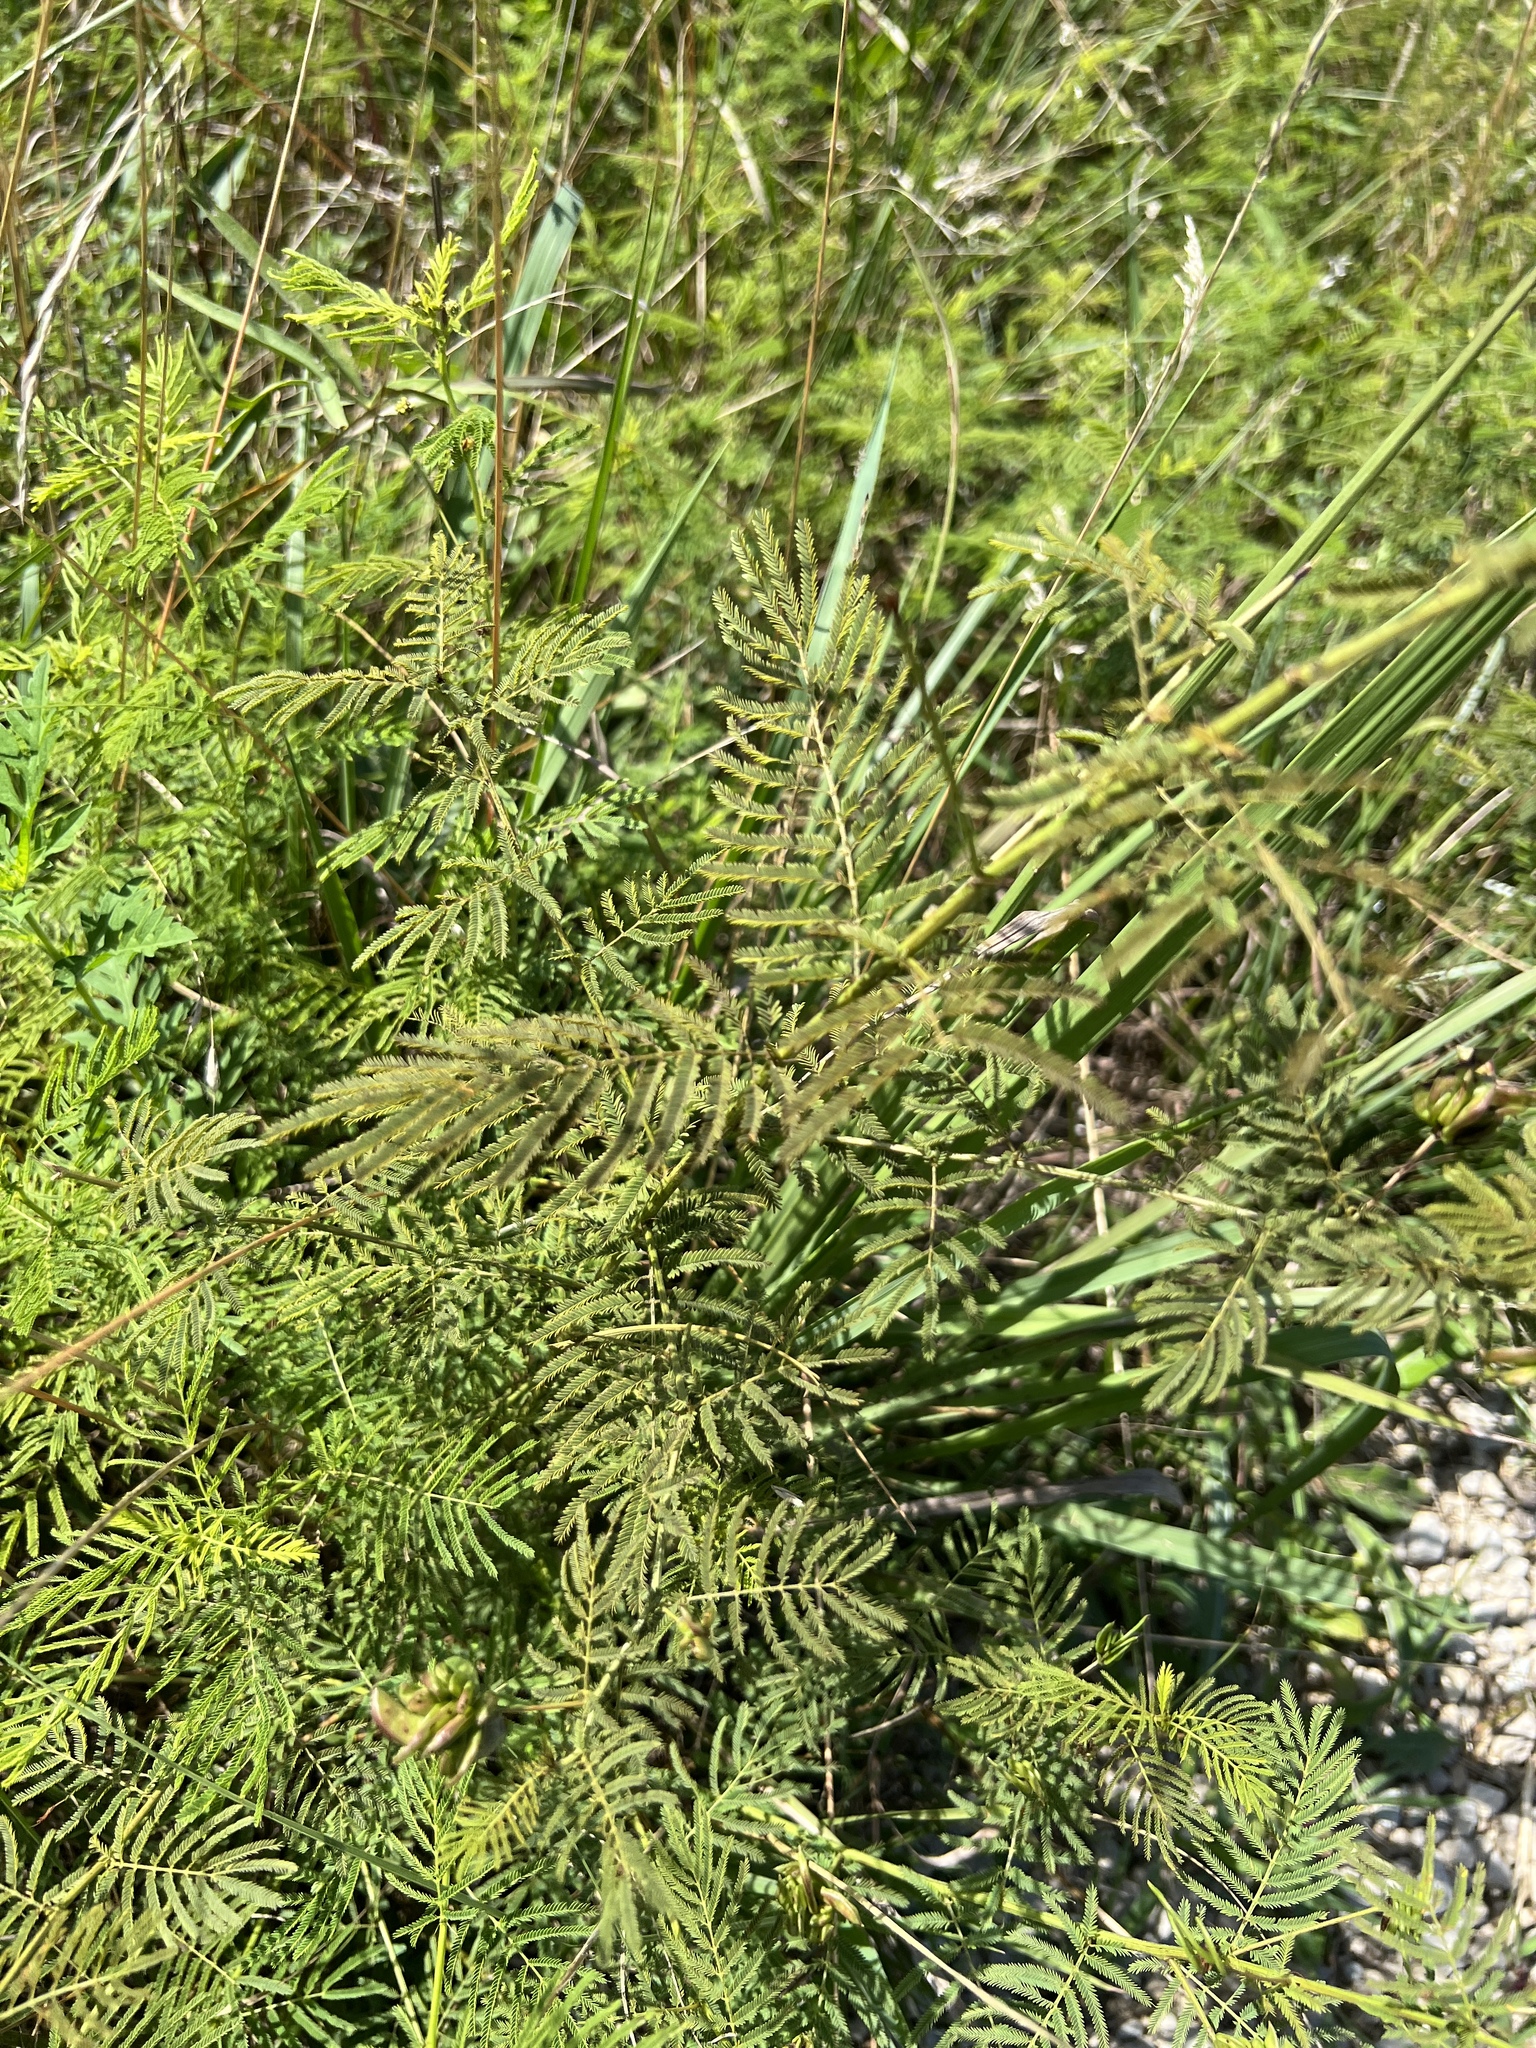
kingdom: Plantae
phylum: Tracheophyta
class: Magnoliopsida
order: Fabales
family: Fabaceae
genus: Desmanthus
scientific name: Desmanthus illinoensis
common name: Illinois bundle-flower
